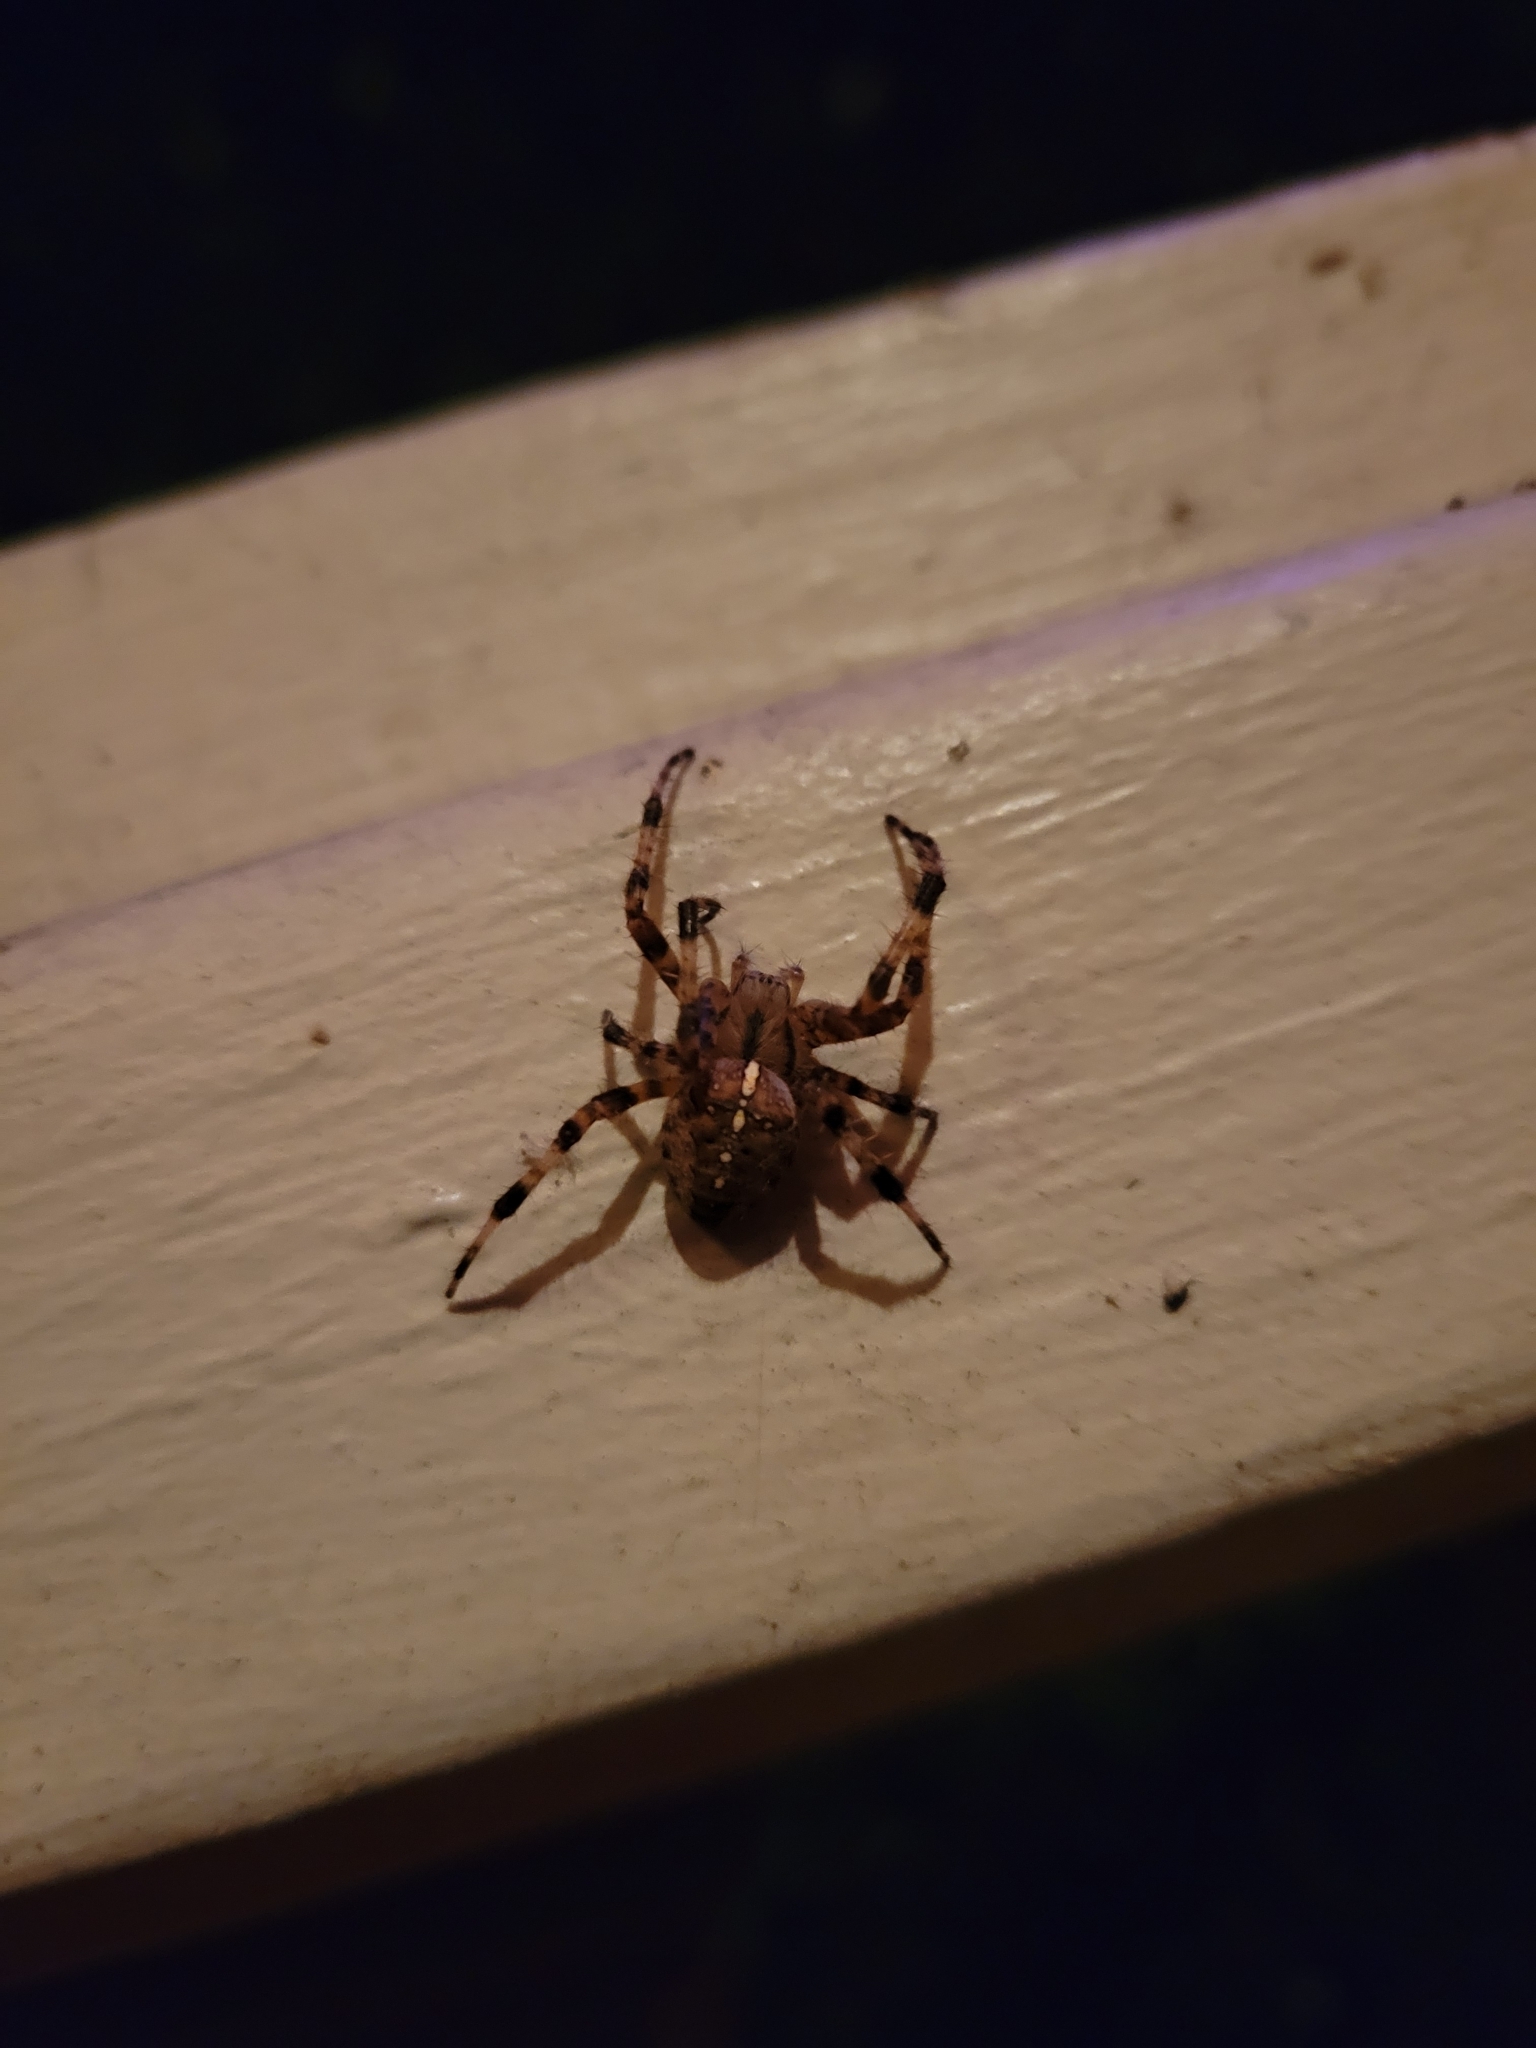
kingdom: Animalia
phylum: Arthropoda
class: Arachnida
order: Araneae
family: Araneidae
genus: Araneus
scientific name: Araneus diadematus
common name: Cross orbweaver
